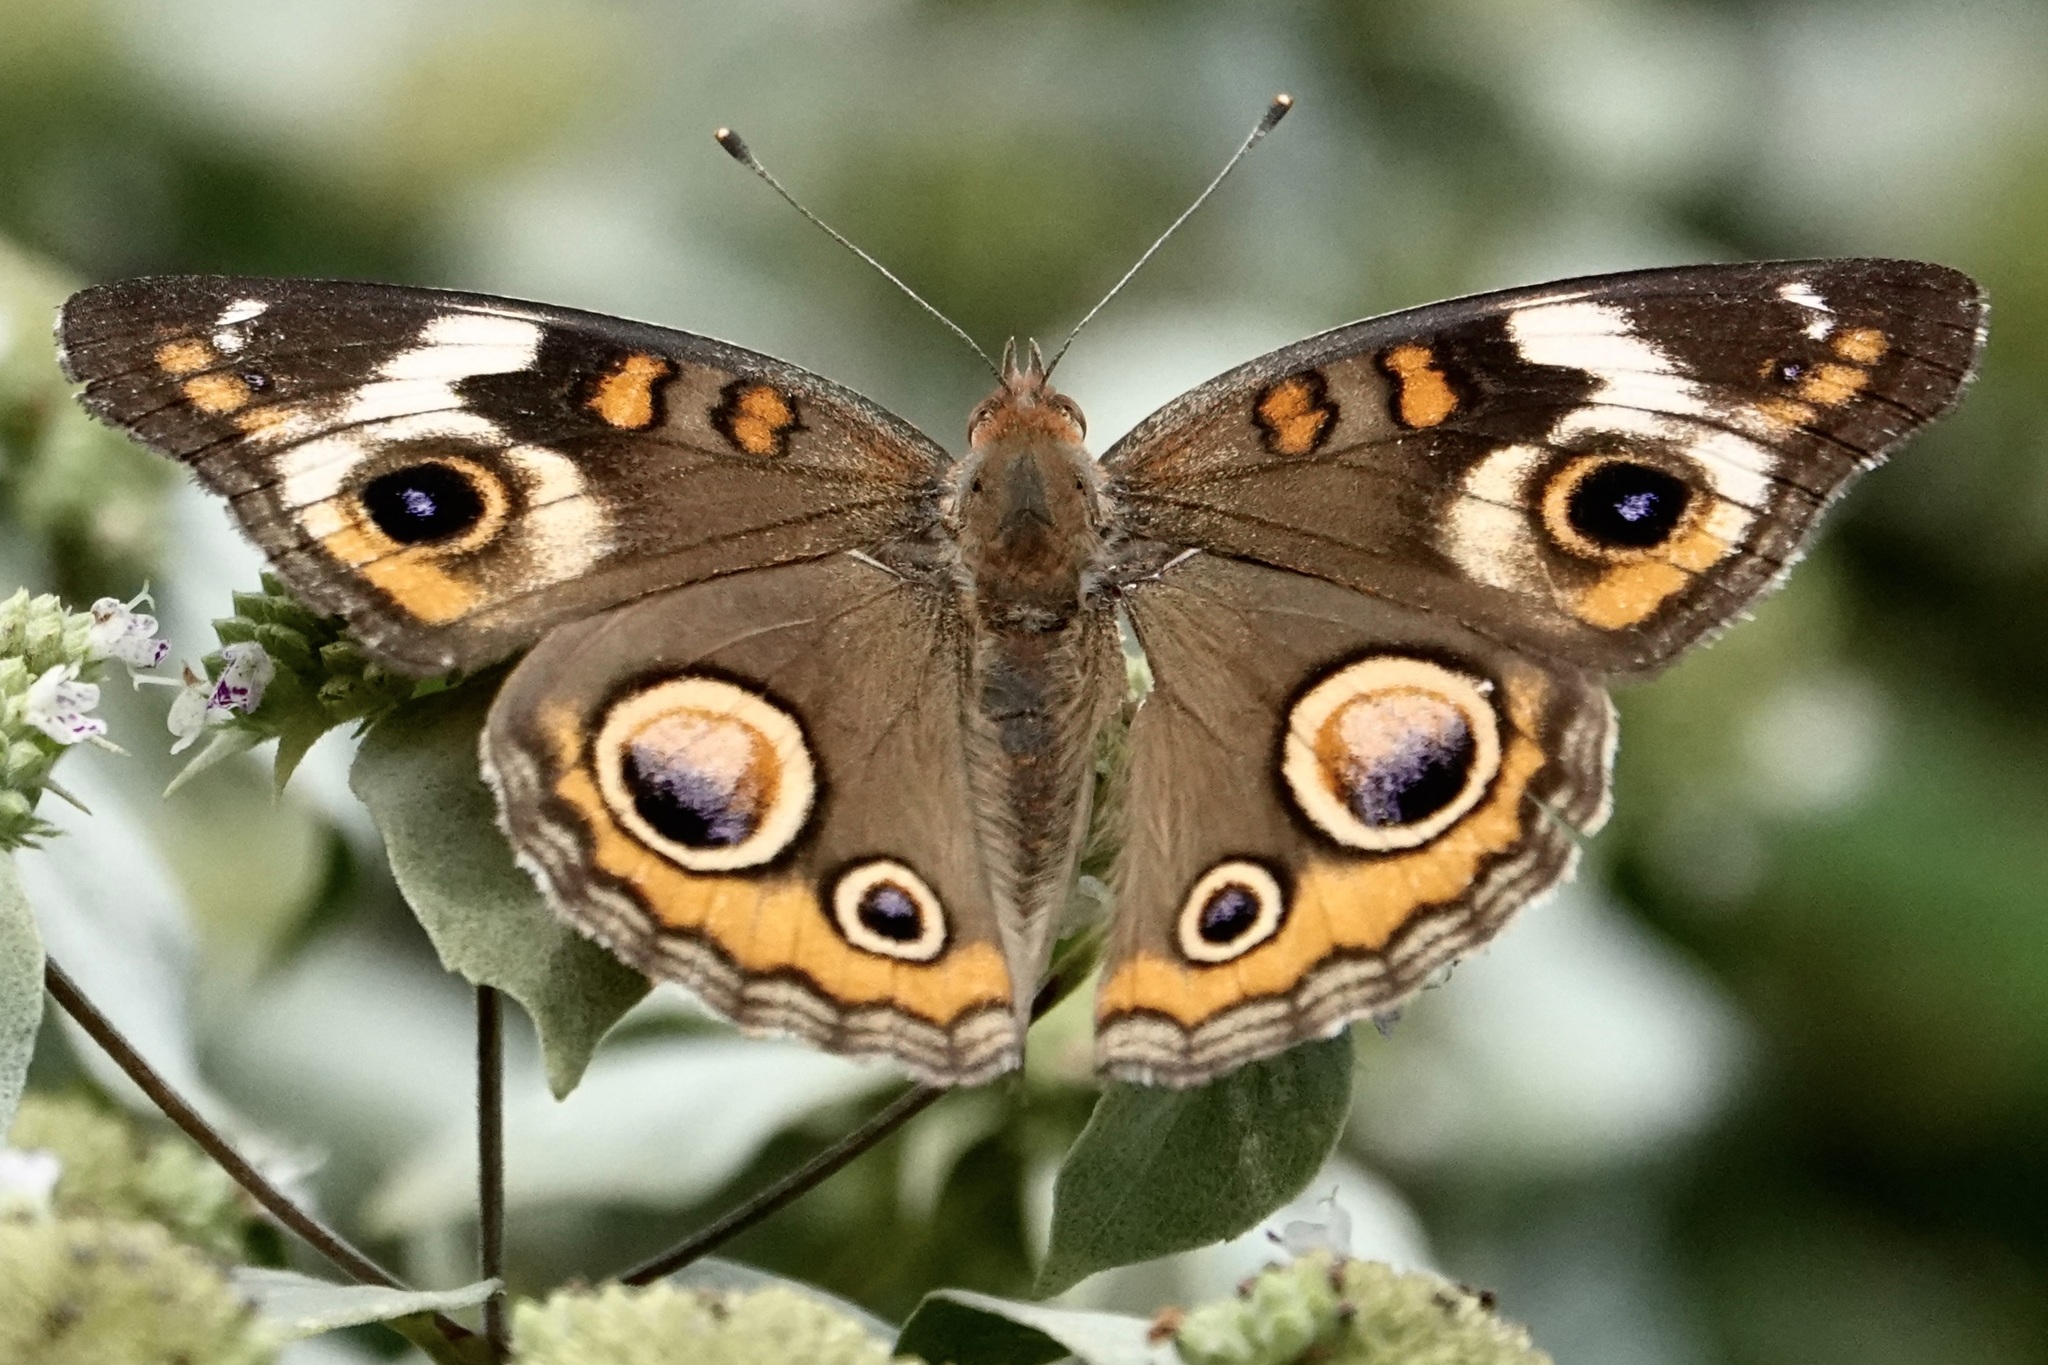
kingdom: Animalia
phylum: Arthropoda
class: Insecta
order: Lepidoptera
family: Nymphalidae
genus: Junonia
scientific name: Junonia coenia
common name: Common buckeye
